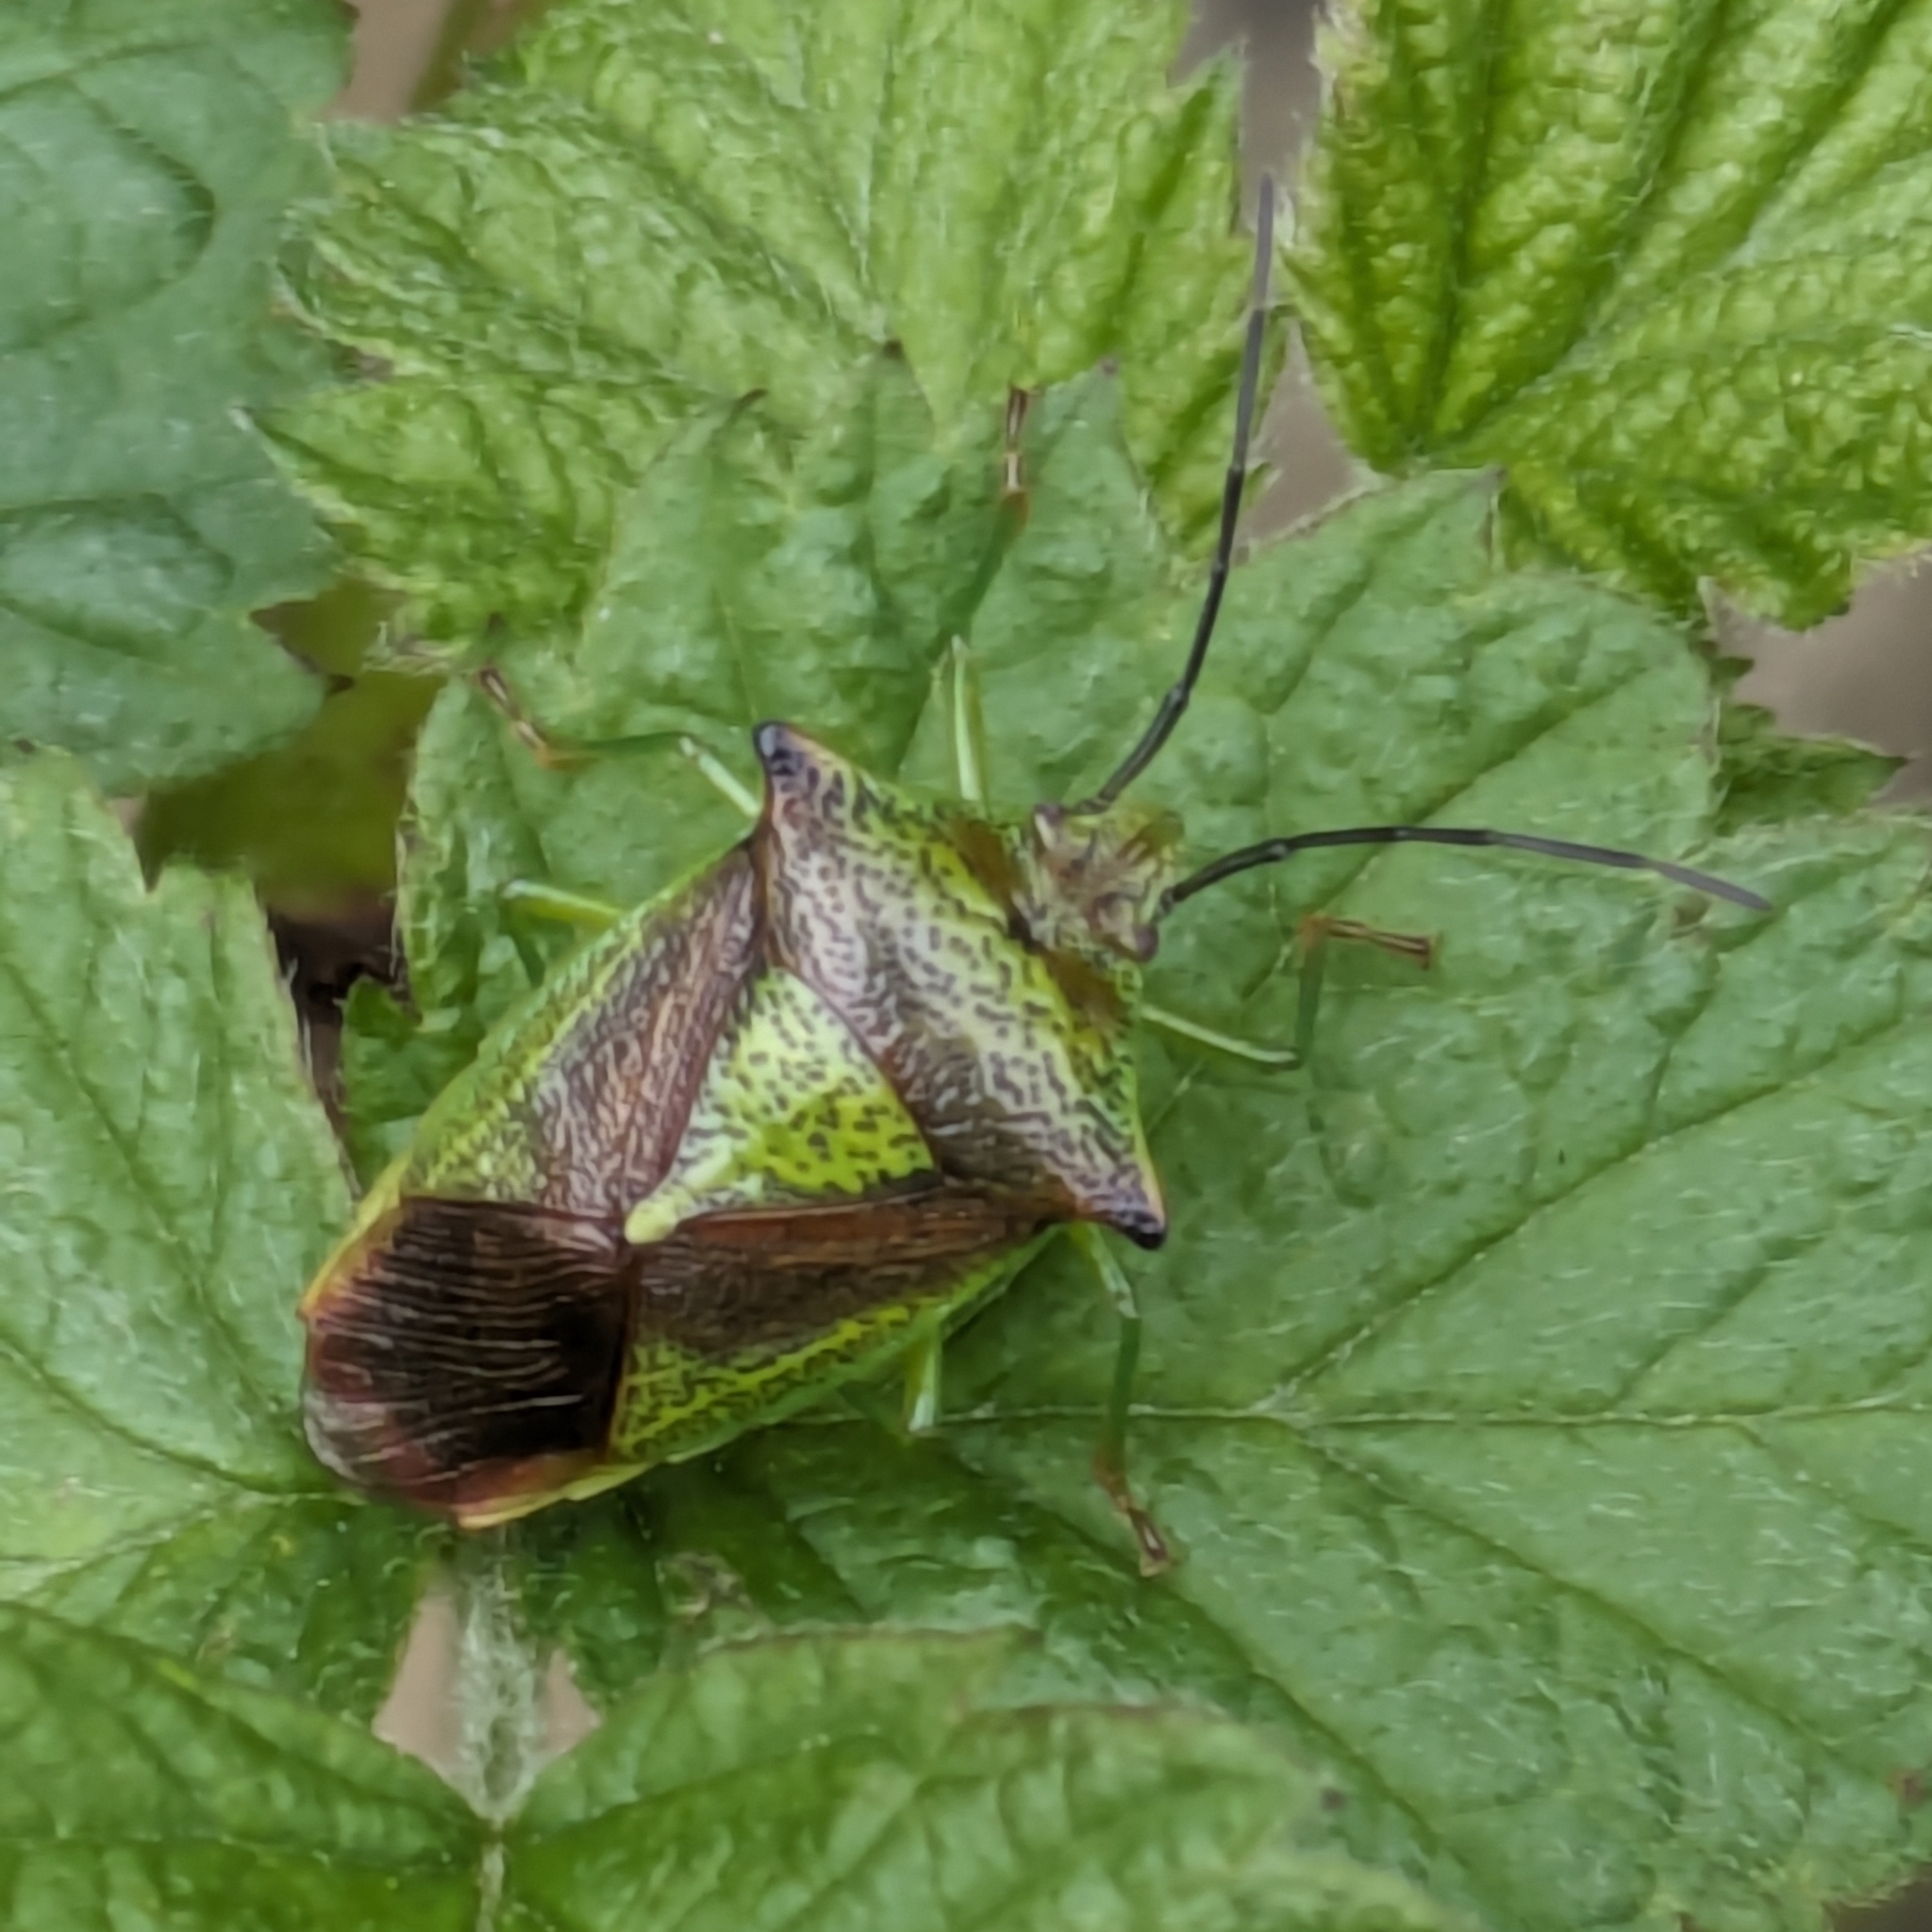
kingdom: Animalia
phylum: Arthropoda
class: Insecta
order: Hemiptera
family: Acanthosomatidae
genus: Acanthosoma
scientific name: Acanthosoma haemorrhoidale
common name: Hawthorn shieldbug
